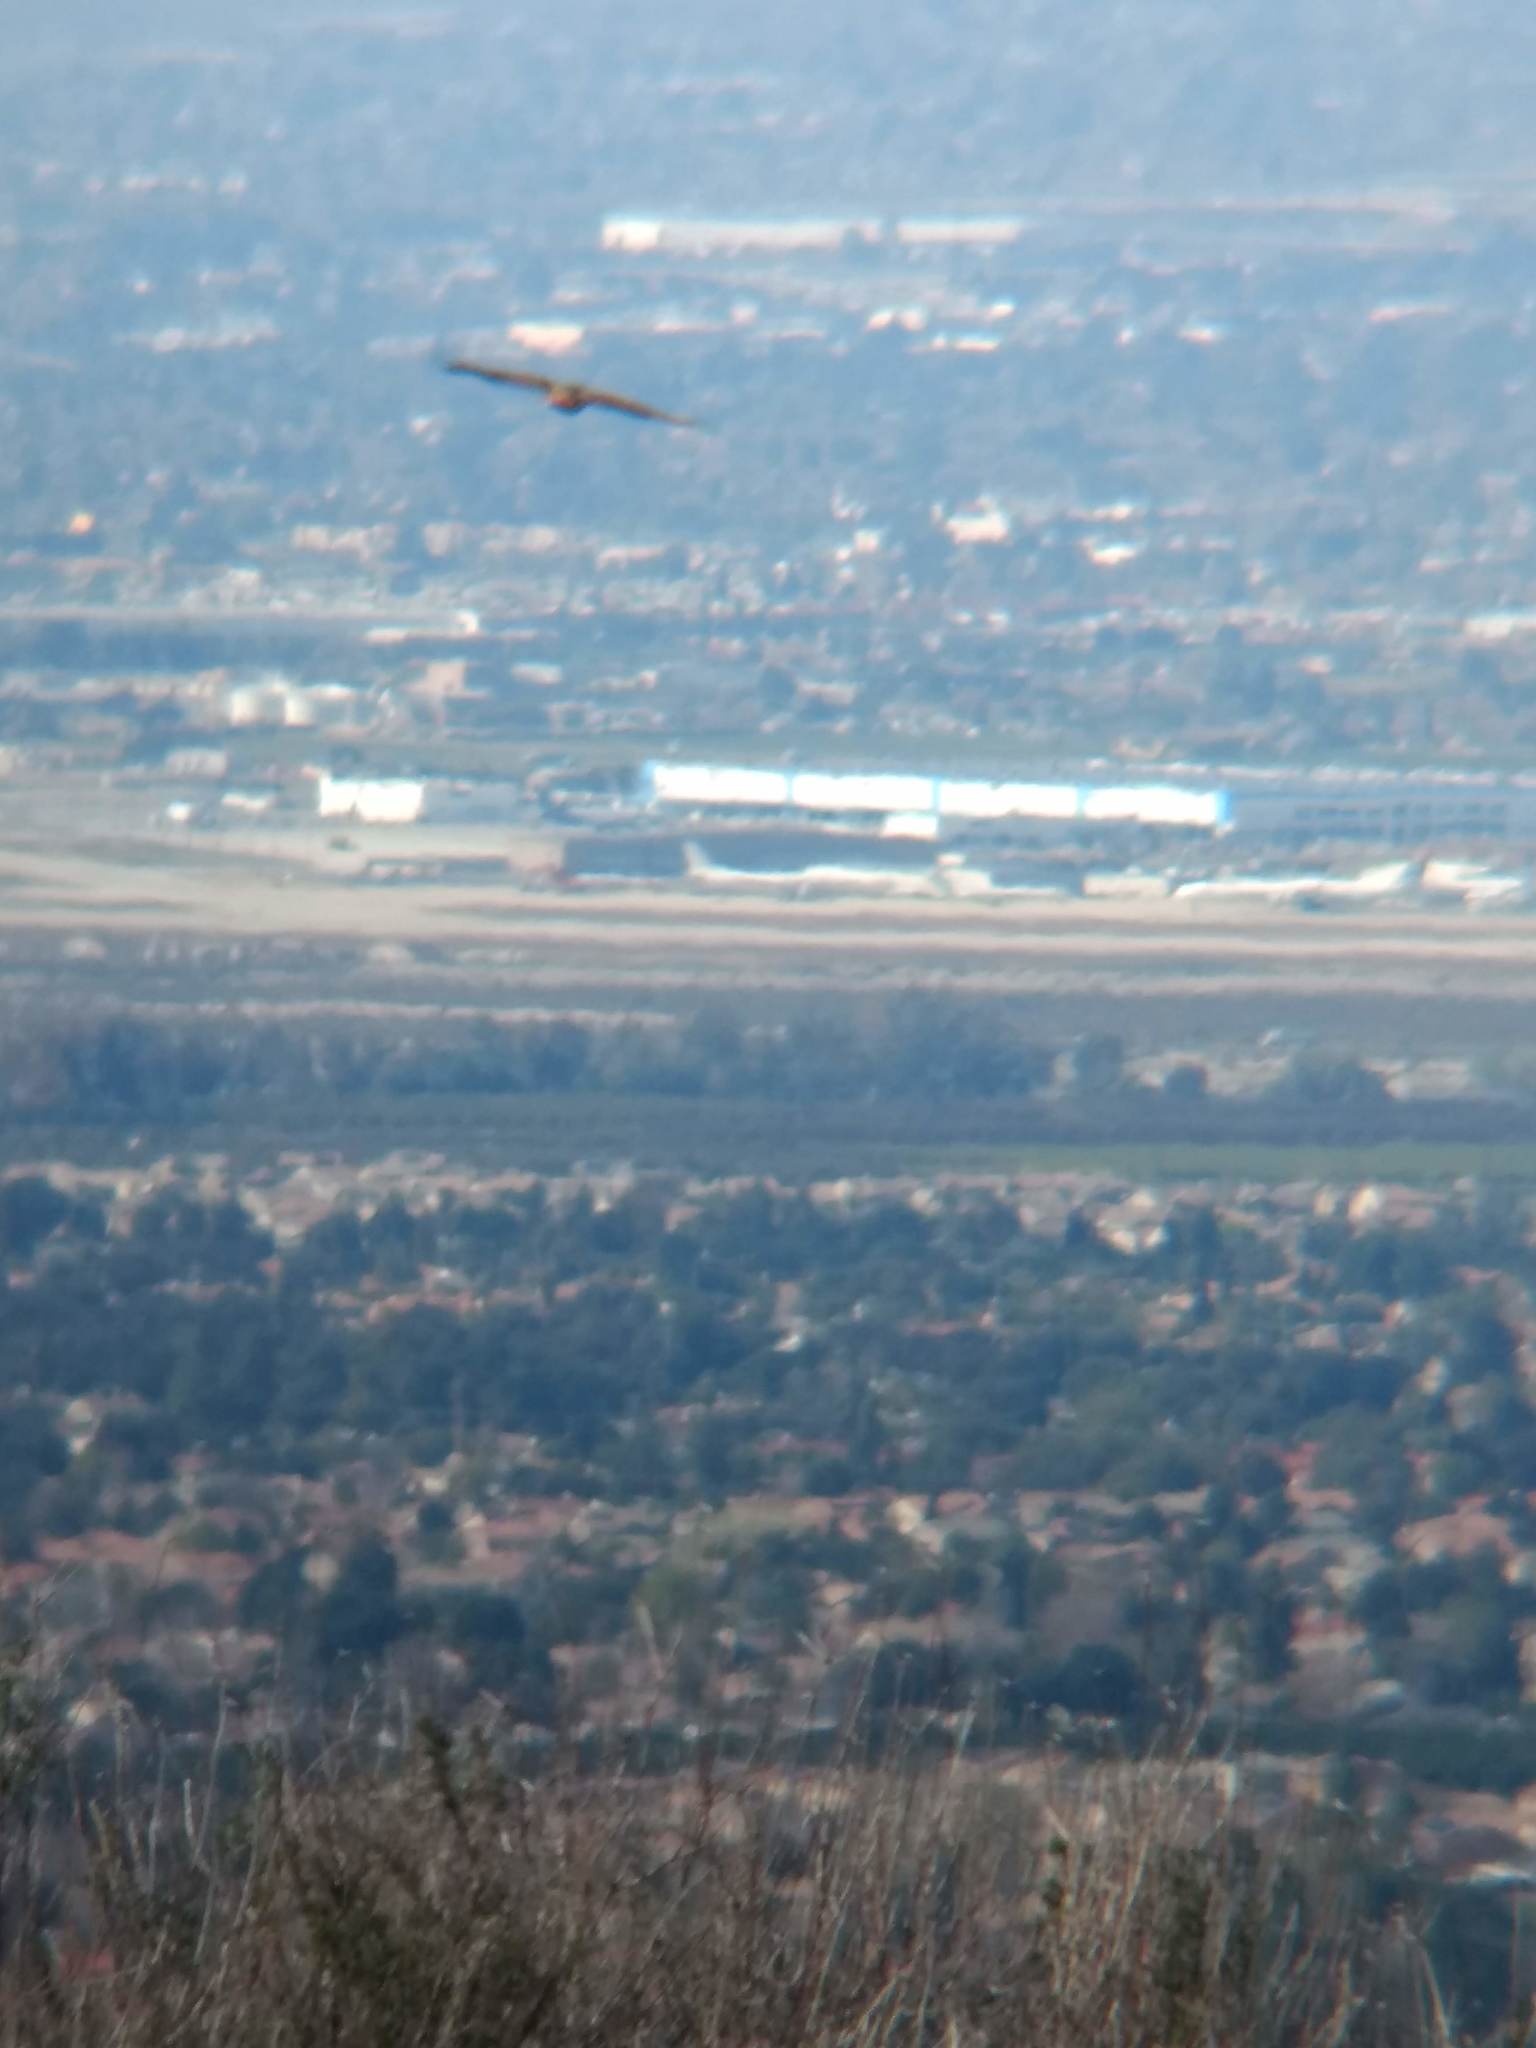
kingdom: Animalia
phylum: Chordata
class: Aves
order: Accipitriformes
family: Accipitridae
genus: Buteo
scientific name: Buteo jamaicensis
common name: Red-tailed hawk
